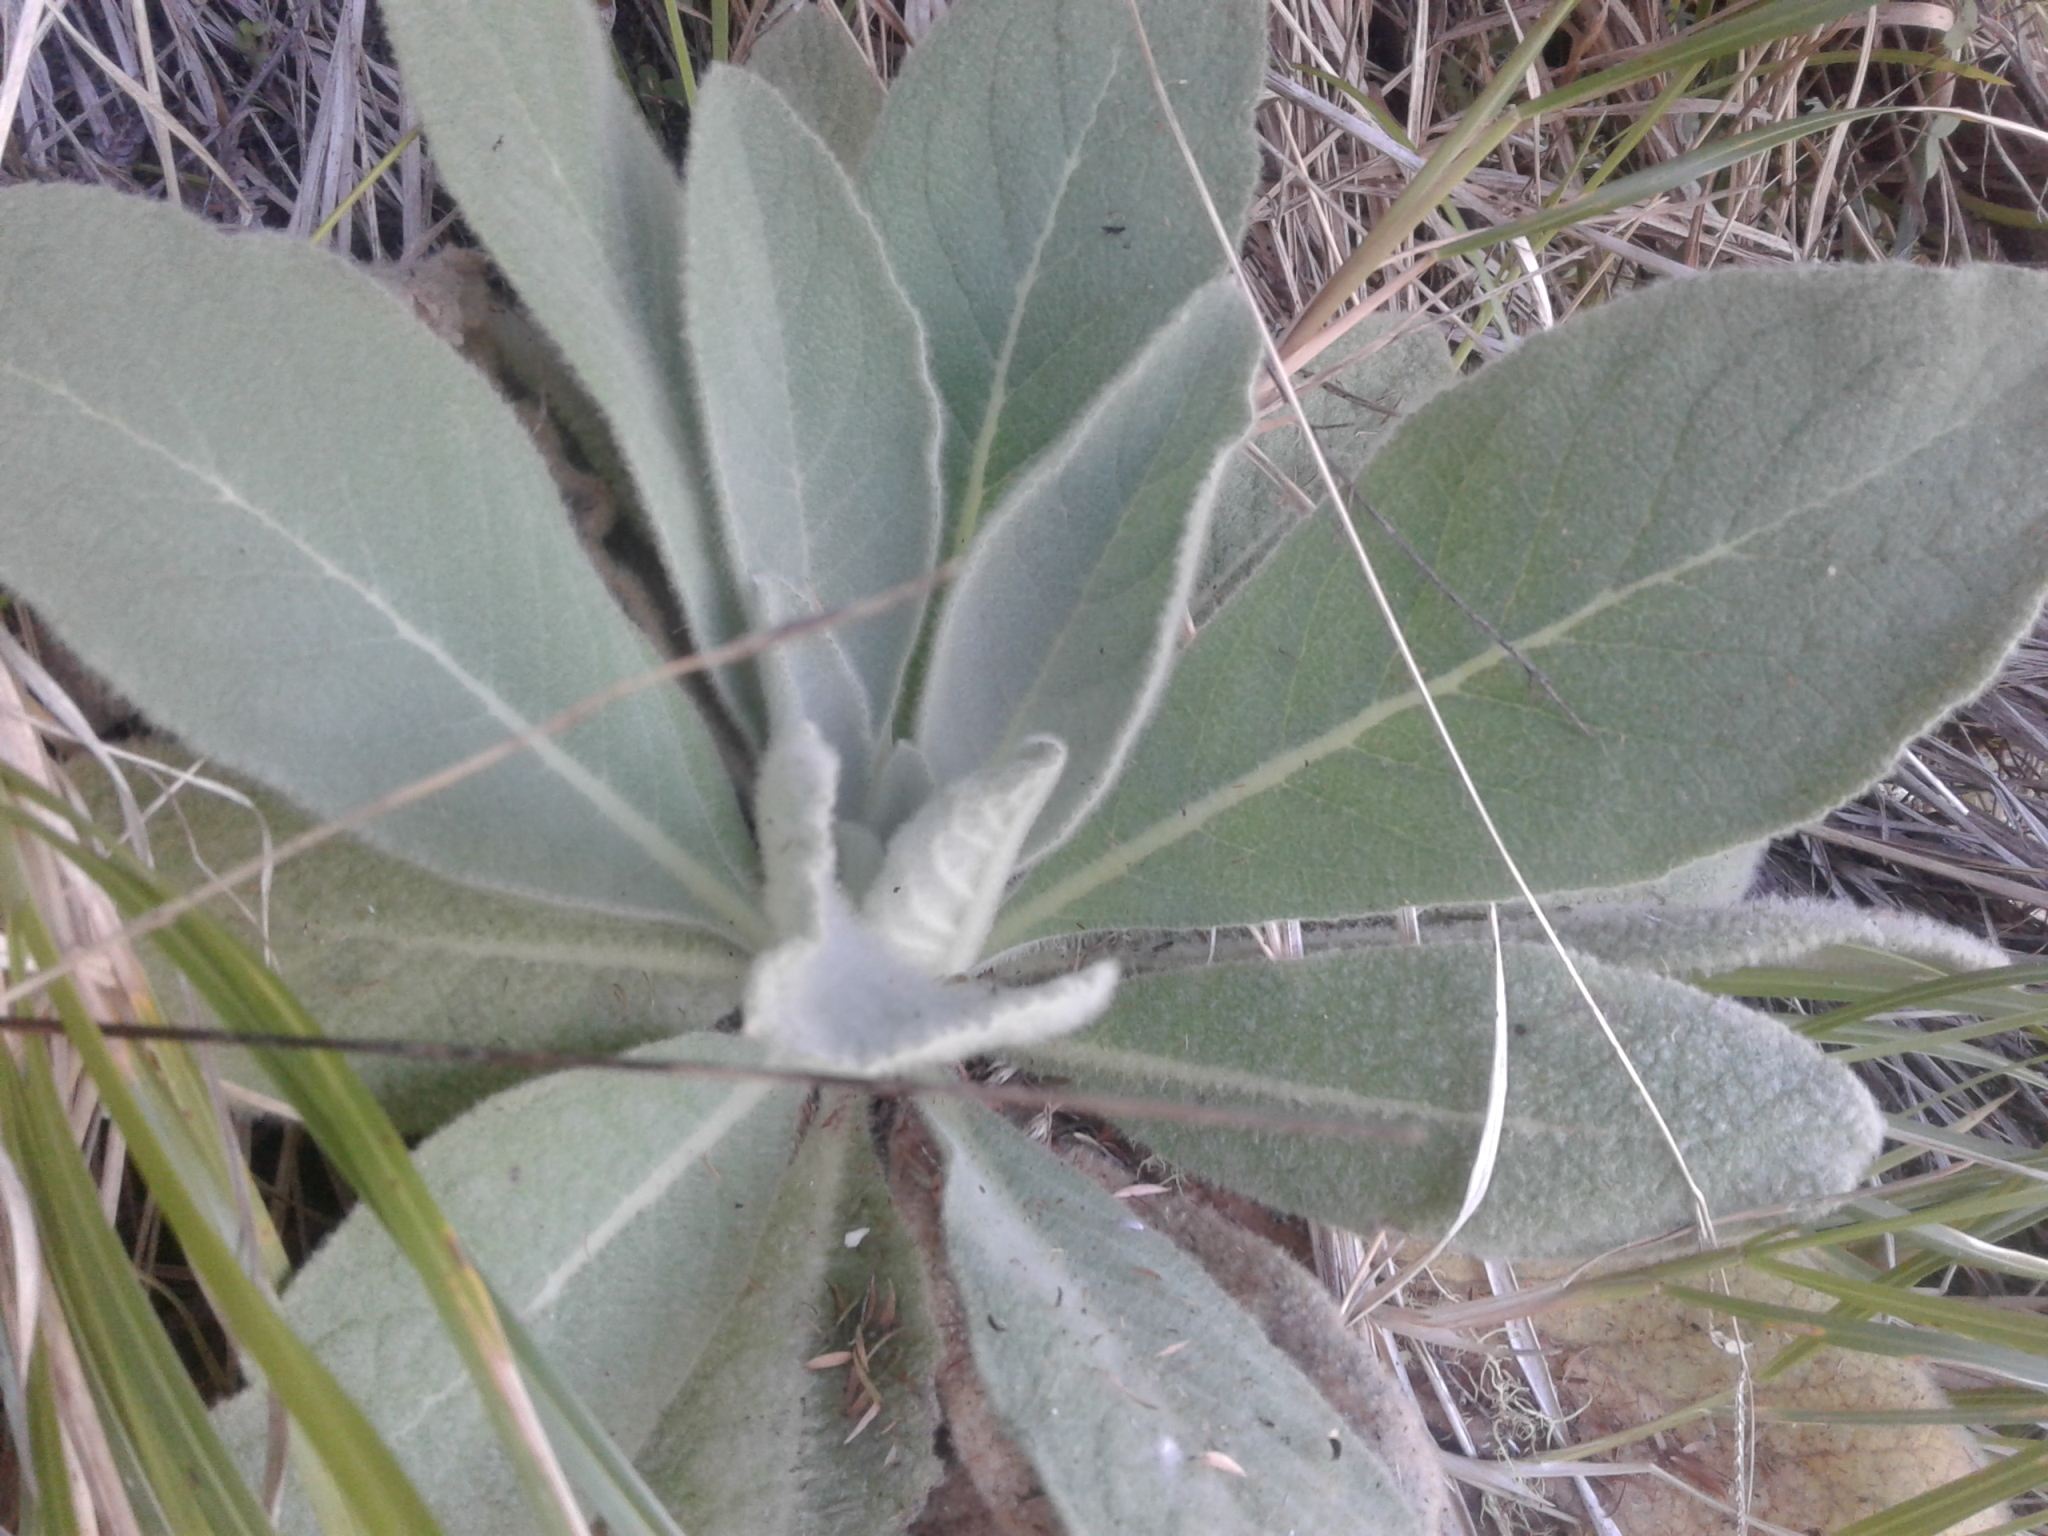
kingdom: Plantae
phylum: Tracheophyta
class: Magnoliopsida
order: Lamiales
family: Scrophulariaceae
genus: Verbascum
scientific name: Verbascum thapsus
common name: Common mullein
